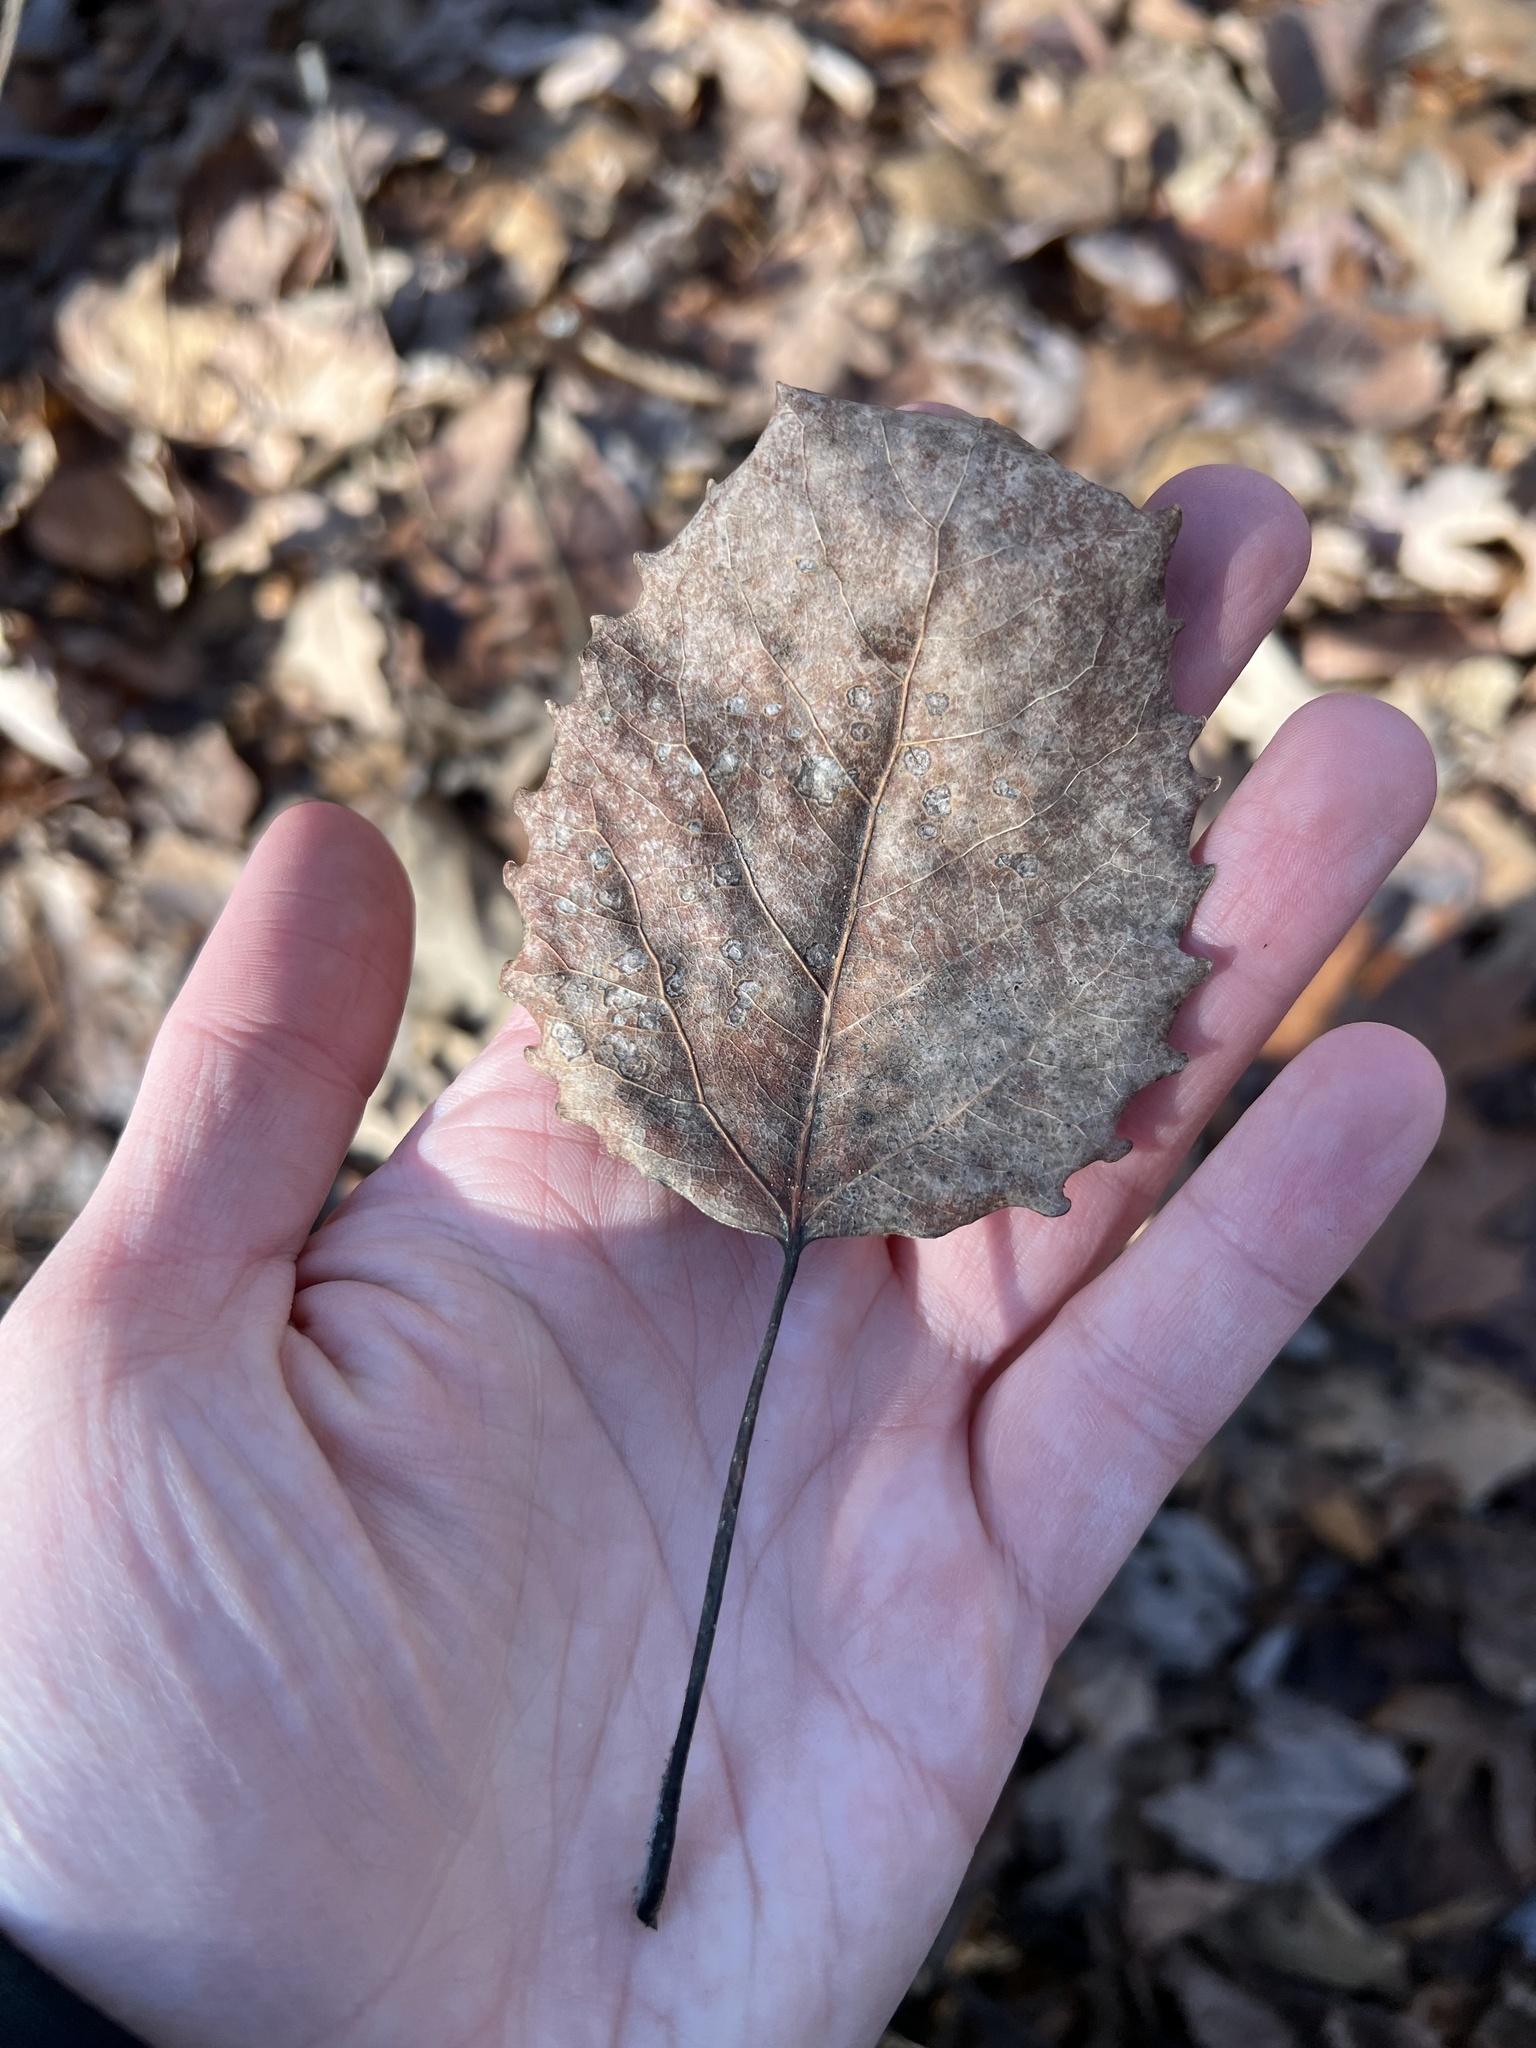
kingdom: Plantae
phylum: Tracheophyta
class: Magnoliopsida
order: Malpighiales
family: Salicaceae
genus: Populus
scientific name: Populus grandidentata
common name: Bigtooth aspen
